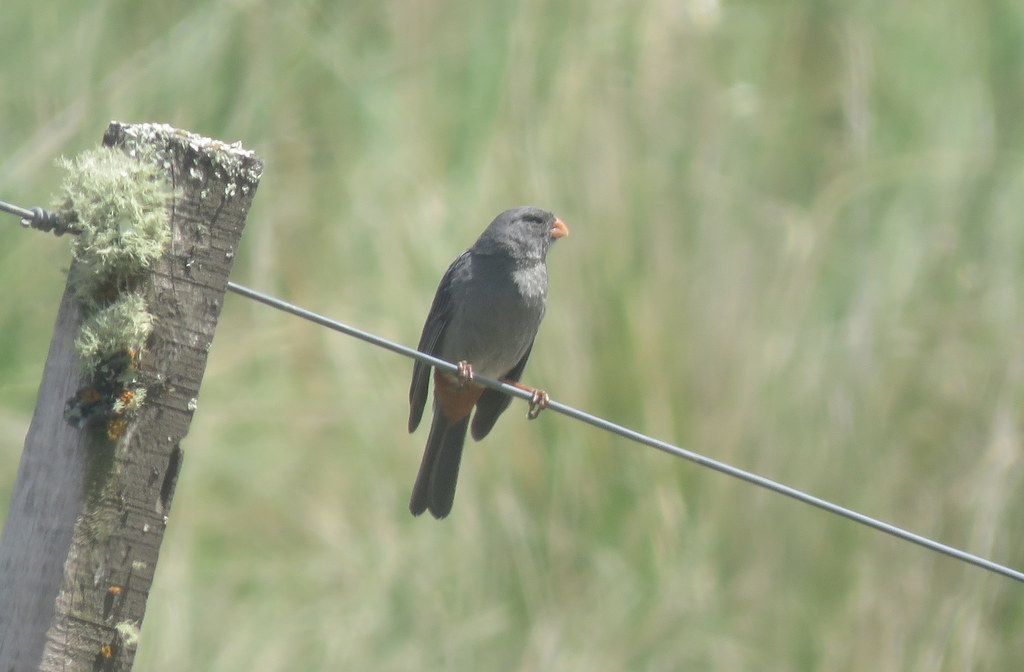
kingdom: Animalia
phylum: Chordata
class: Aves
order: Passeriformes
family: Thraupidae
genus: Catamenia
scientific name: Catamenia inornata
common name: Plain-colored seedeater
